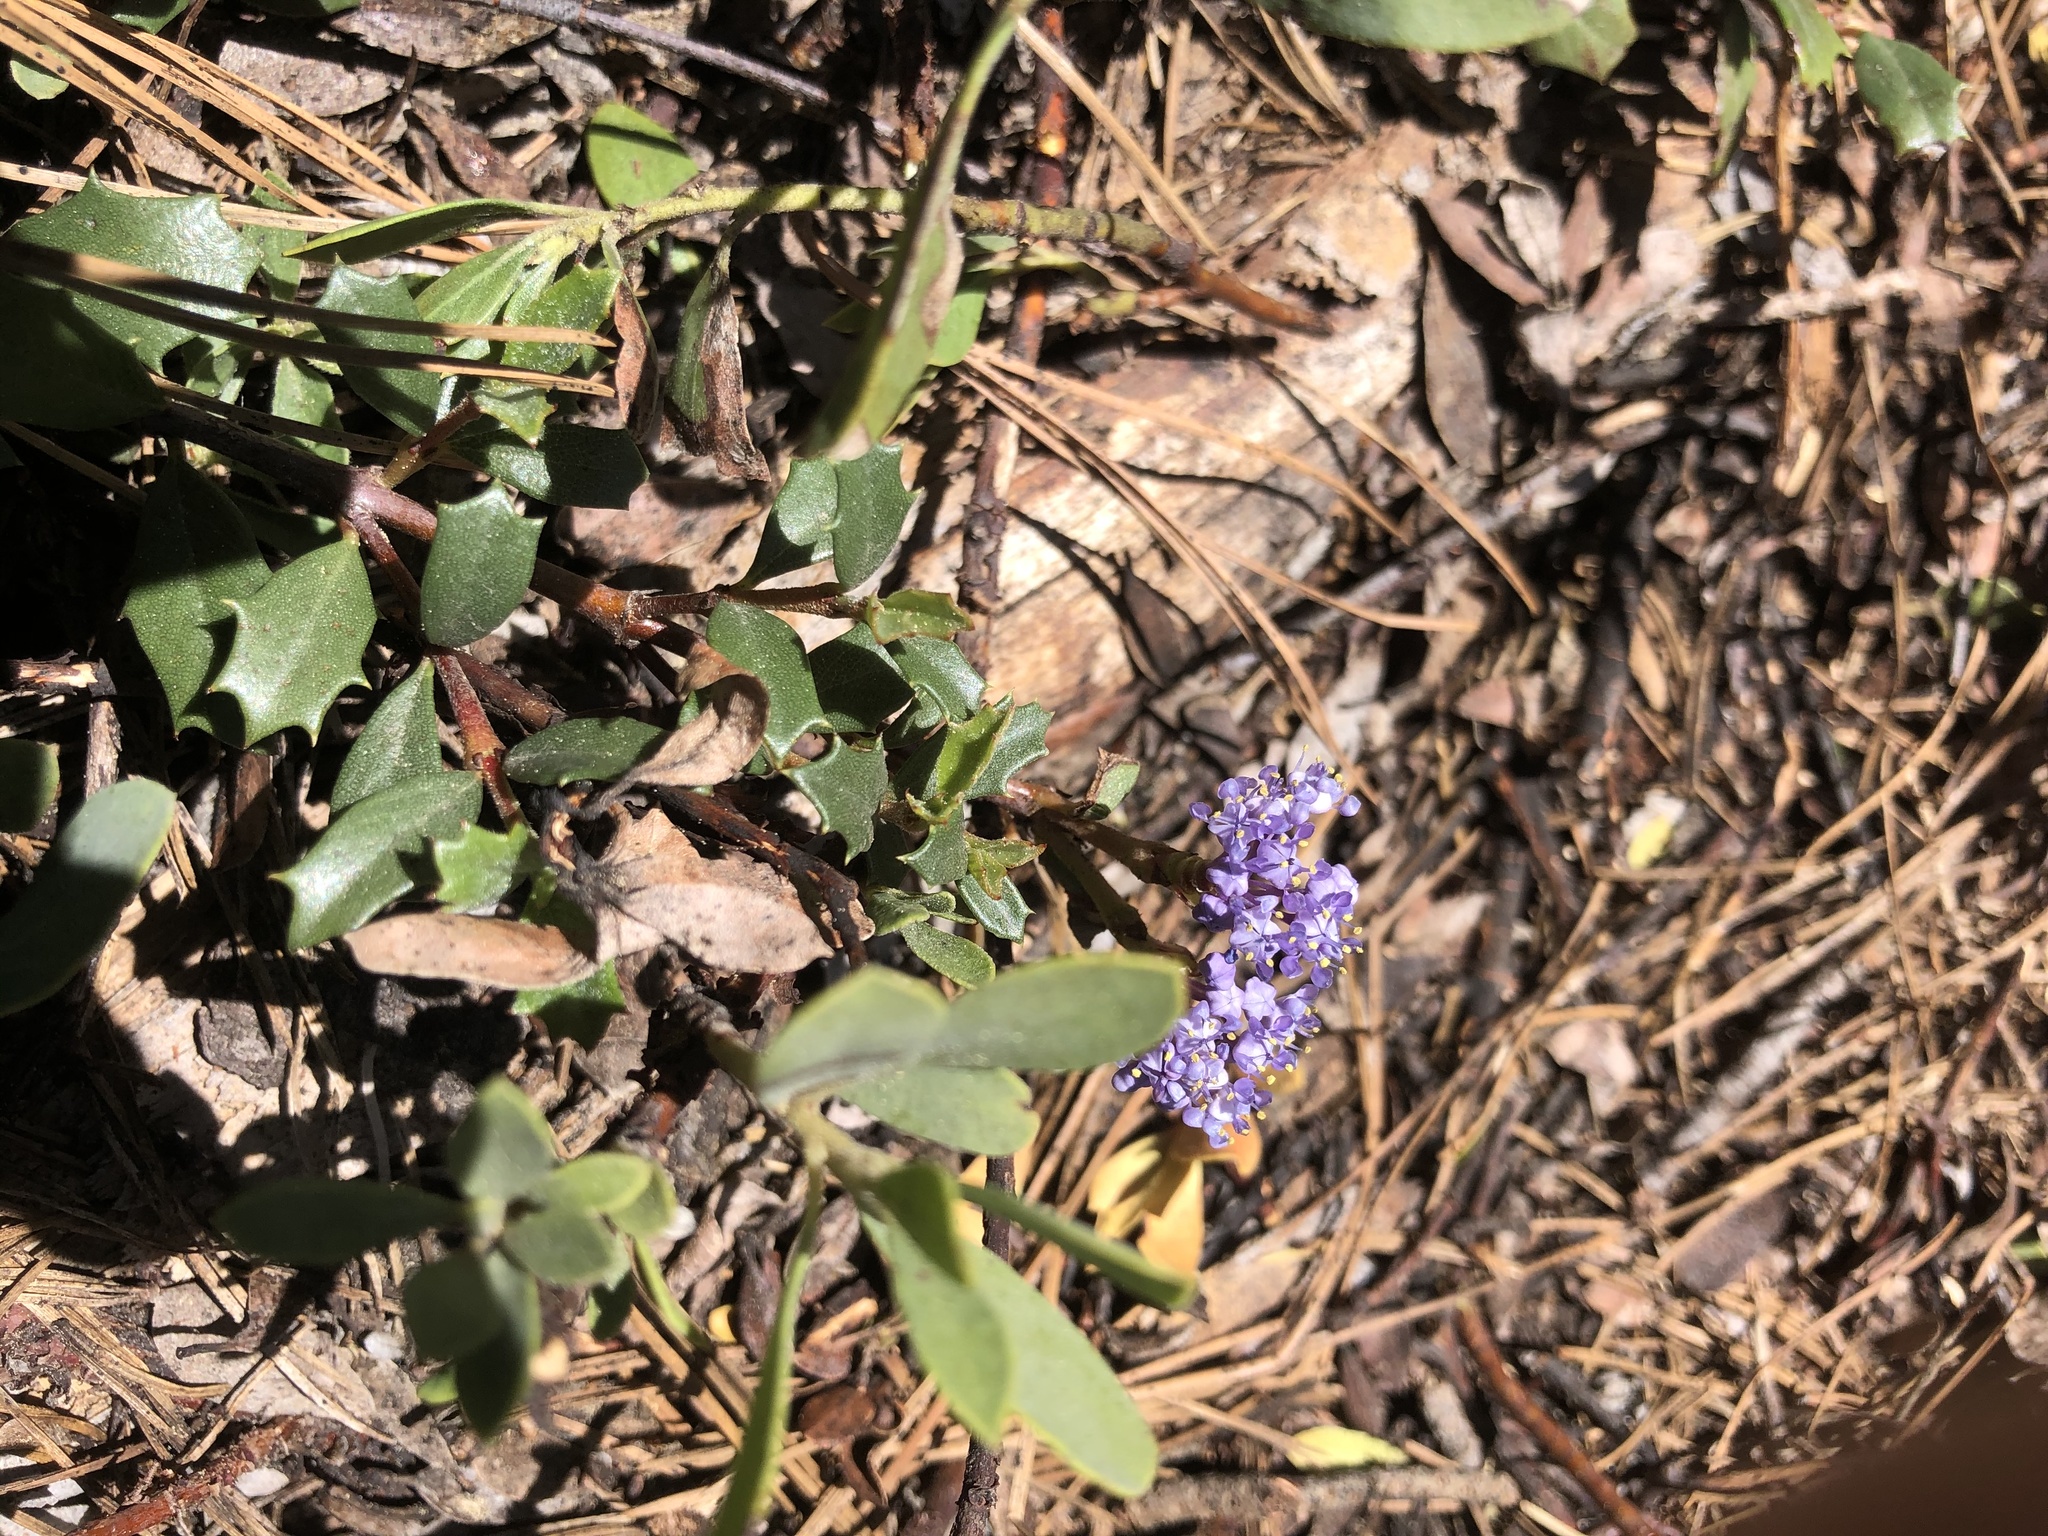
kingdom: Plantae
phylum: Tracheophyta
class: Magnoliopsida
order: Rosales
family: Rhamnaceae
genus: Ceanothus
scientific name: Ceanothus prostratus
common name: Mahala-mat
